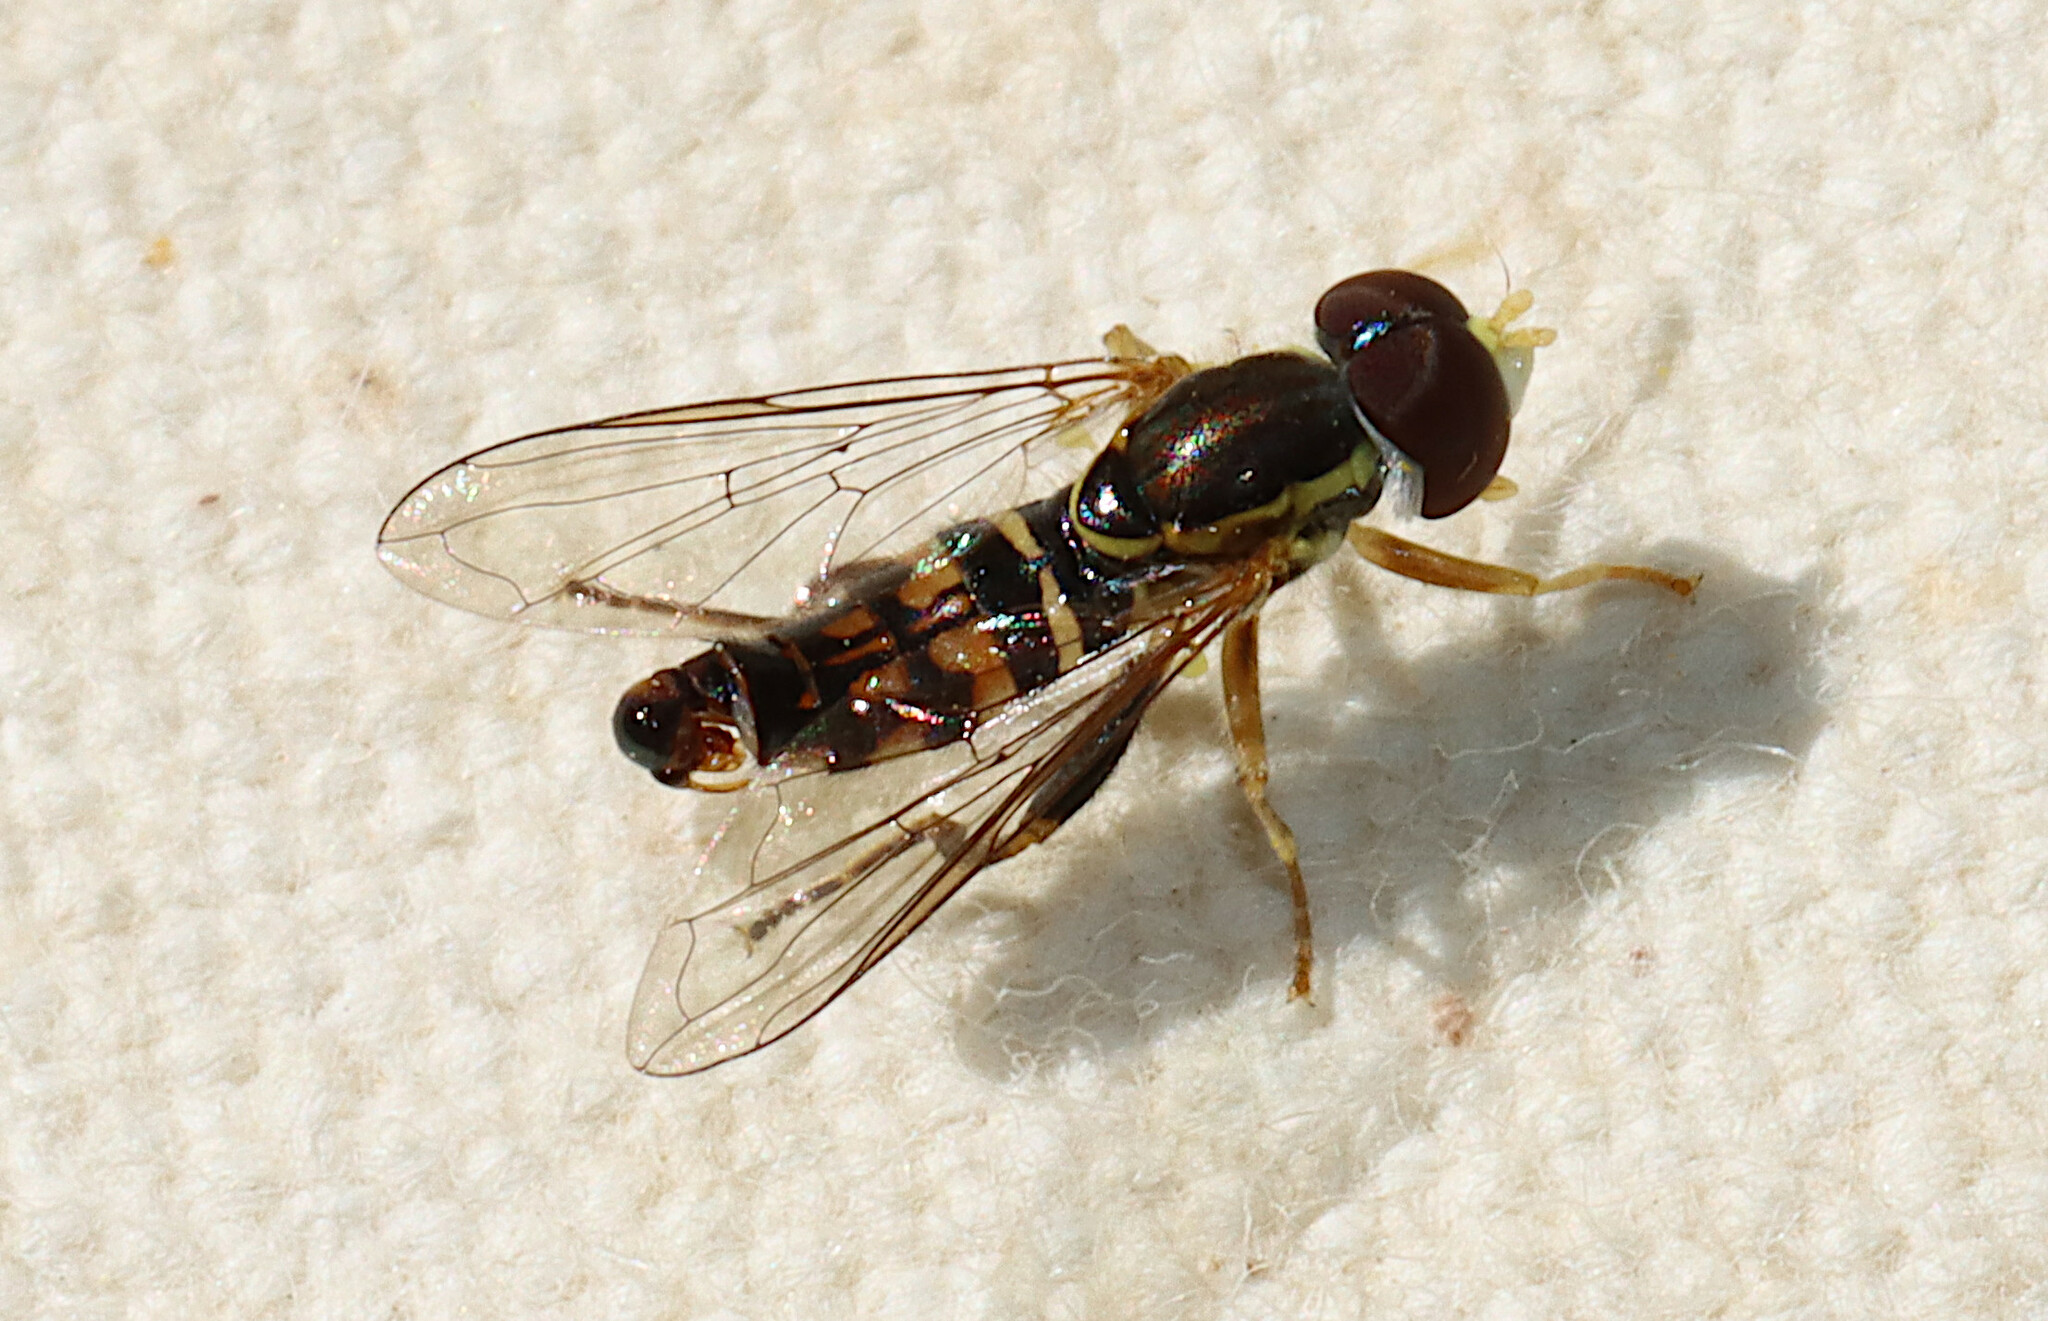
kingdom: Animalia
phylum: Arthropoda
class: Insecta
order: Diptera
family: Syrphidae
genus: Toxomerus
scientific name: Toxomerus geminatus
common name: Eastern calligrapher
